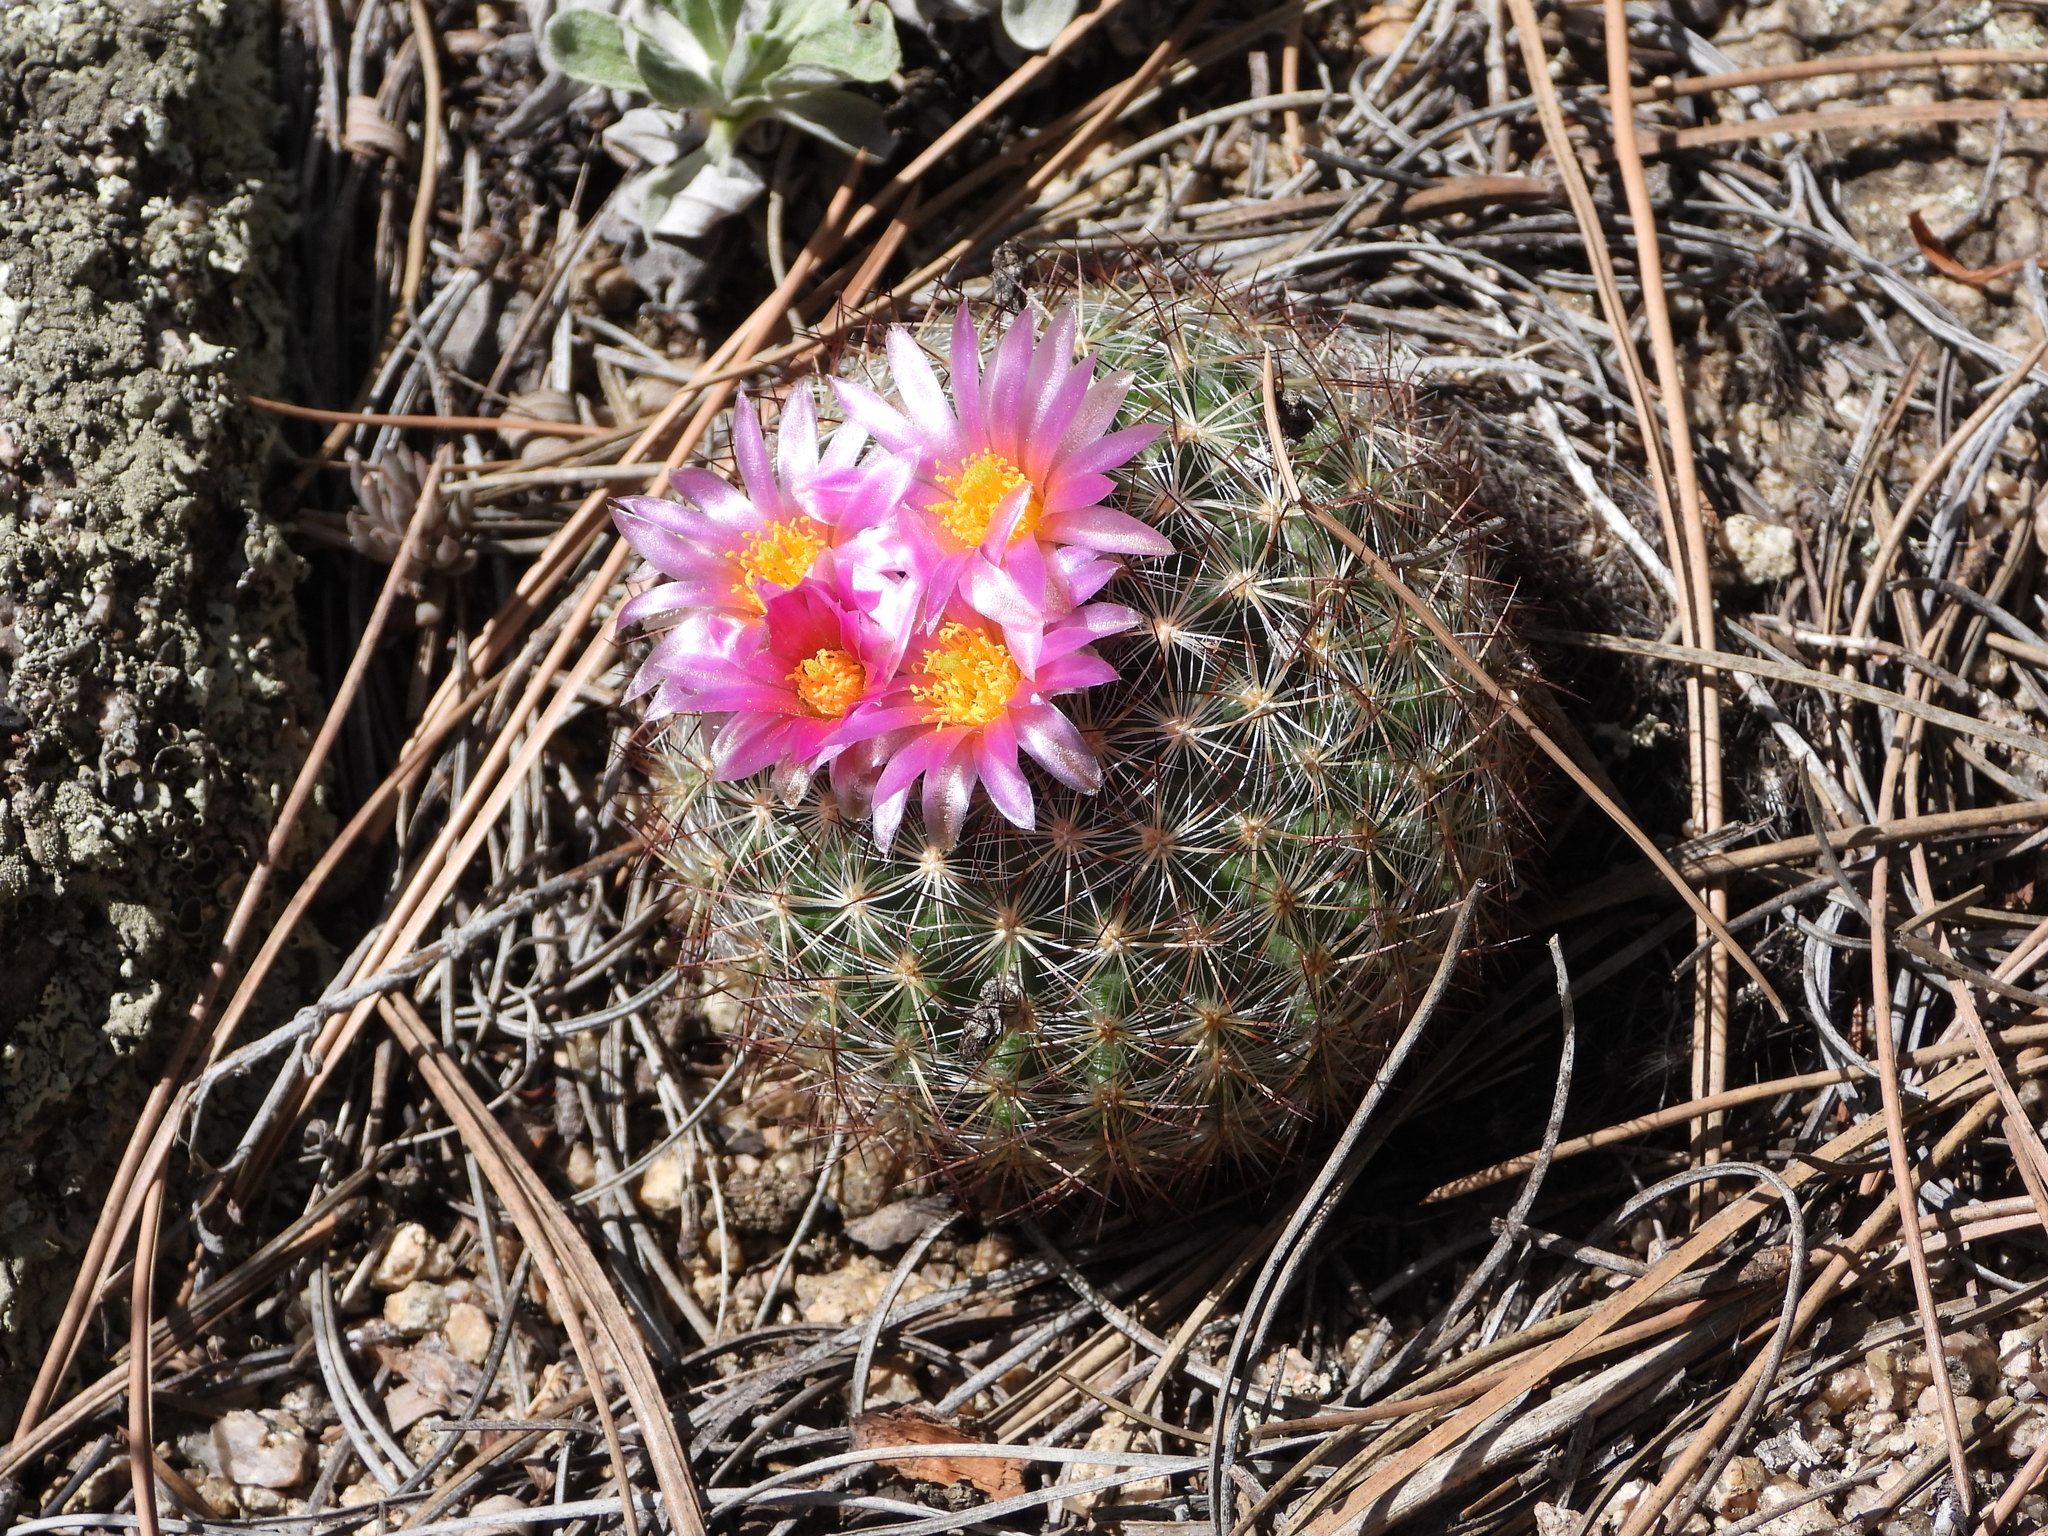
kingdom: Plantae
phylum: Tracheophyta
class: Magnoliopsida
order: Caryophyllales
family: Cactaceae
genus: Pediocactus
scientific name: Pediocactus simpsonii
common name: Simpson's hedgehog cactus
